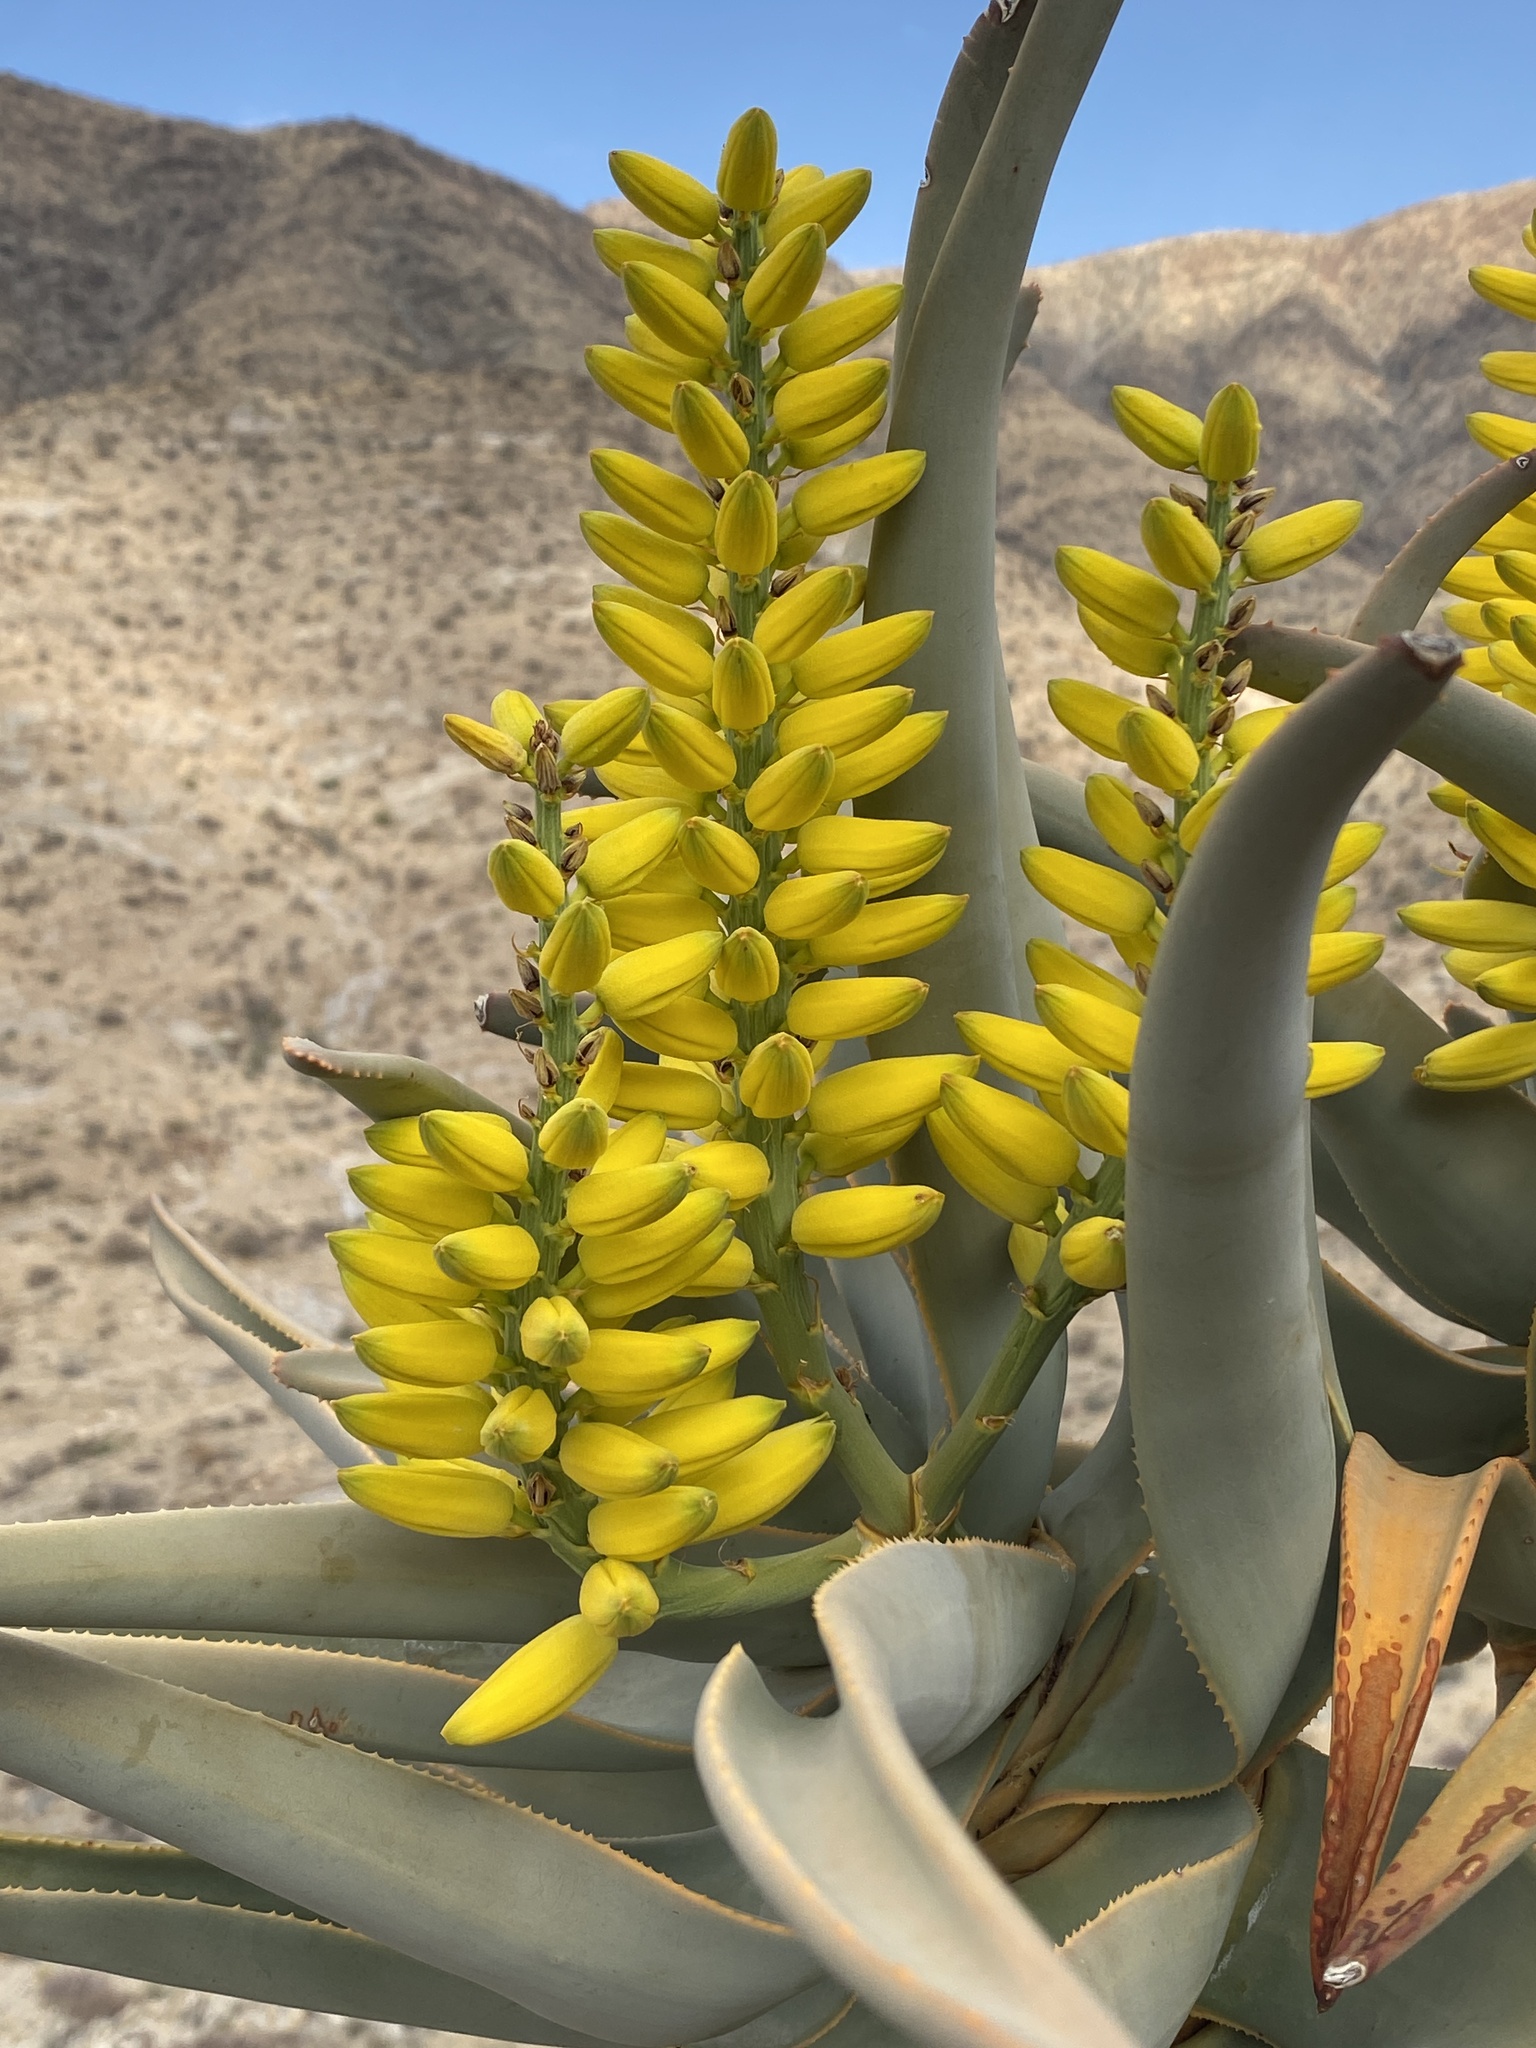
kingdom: Plantae
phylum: Tracheophyta
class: Liliopsida
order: Asparagales
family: Asphodelaceae
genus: Aloidendron
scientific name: Aloidendron dichotomum
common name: Quiver tree
